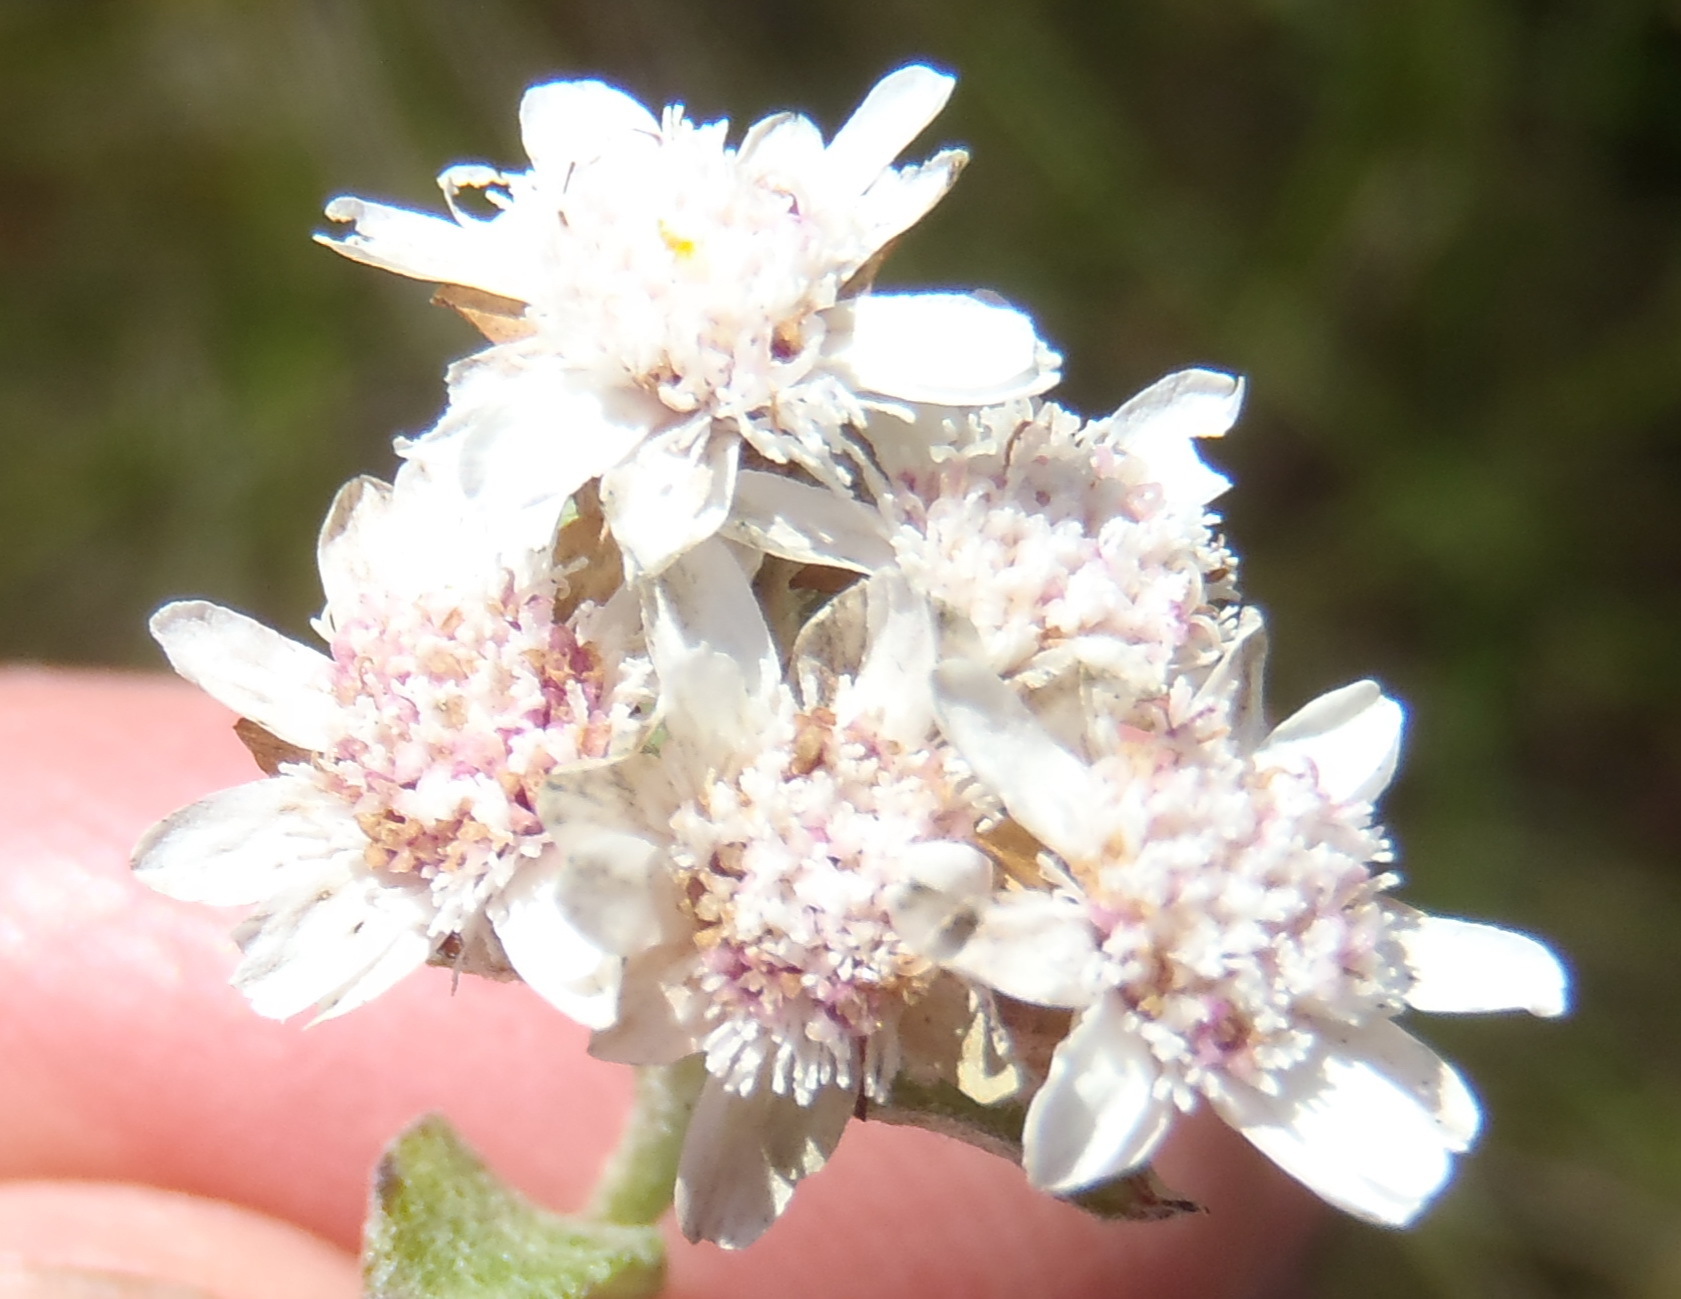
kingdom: Plantae
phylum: Tracheophyta
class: Magnoliopsida
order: Asterales
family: Asteraceae
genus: Langebergia
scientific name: Langebergia canescens
